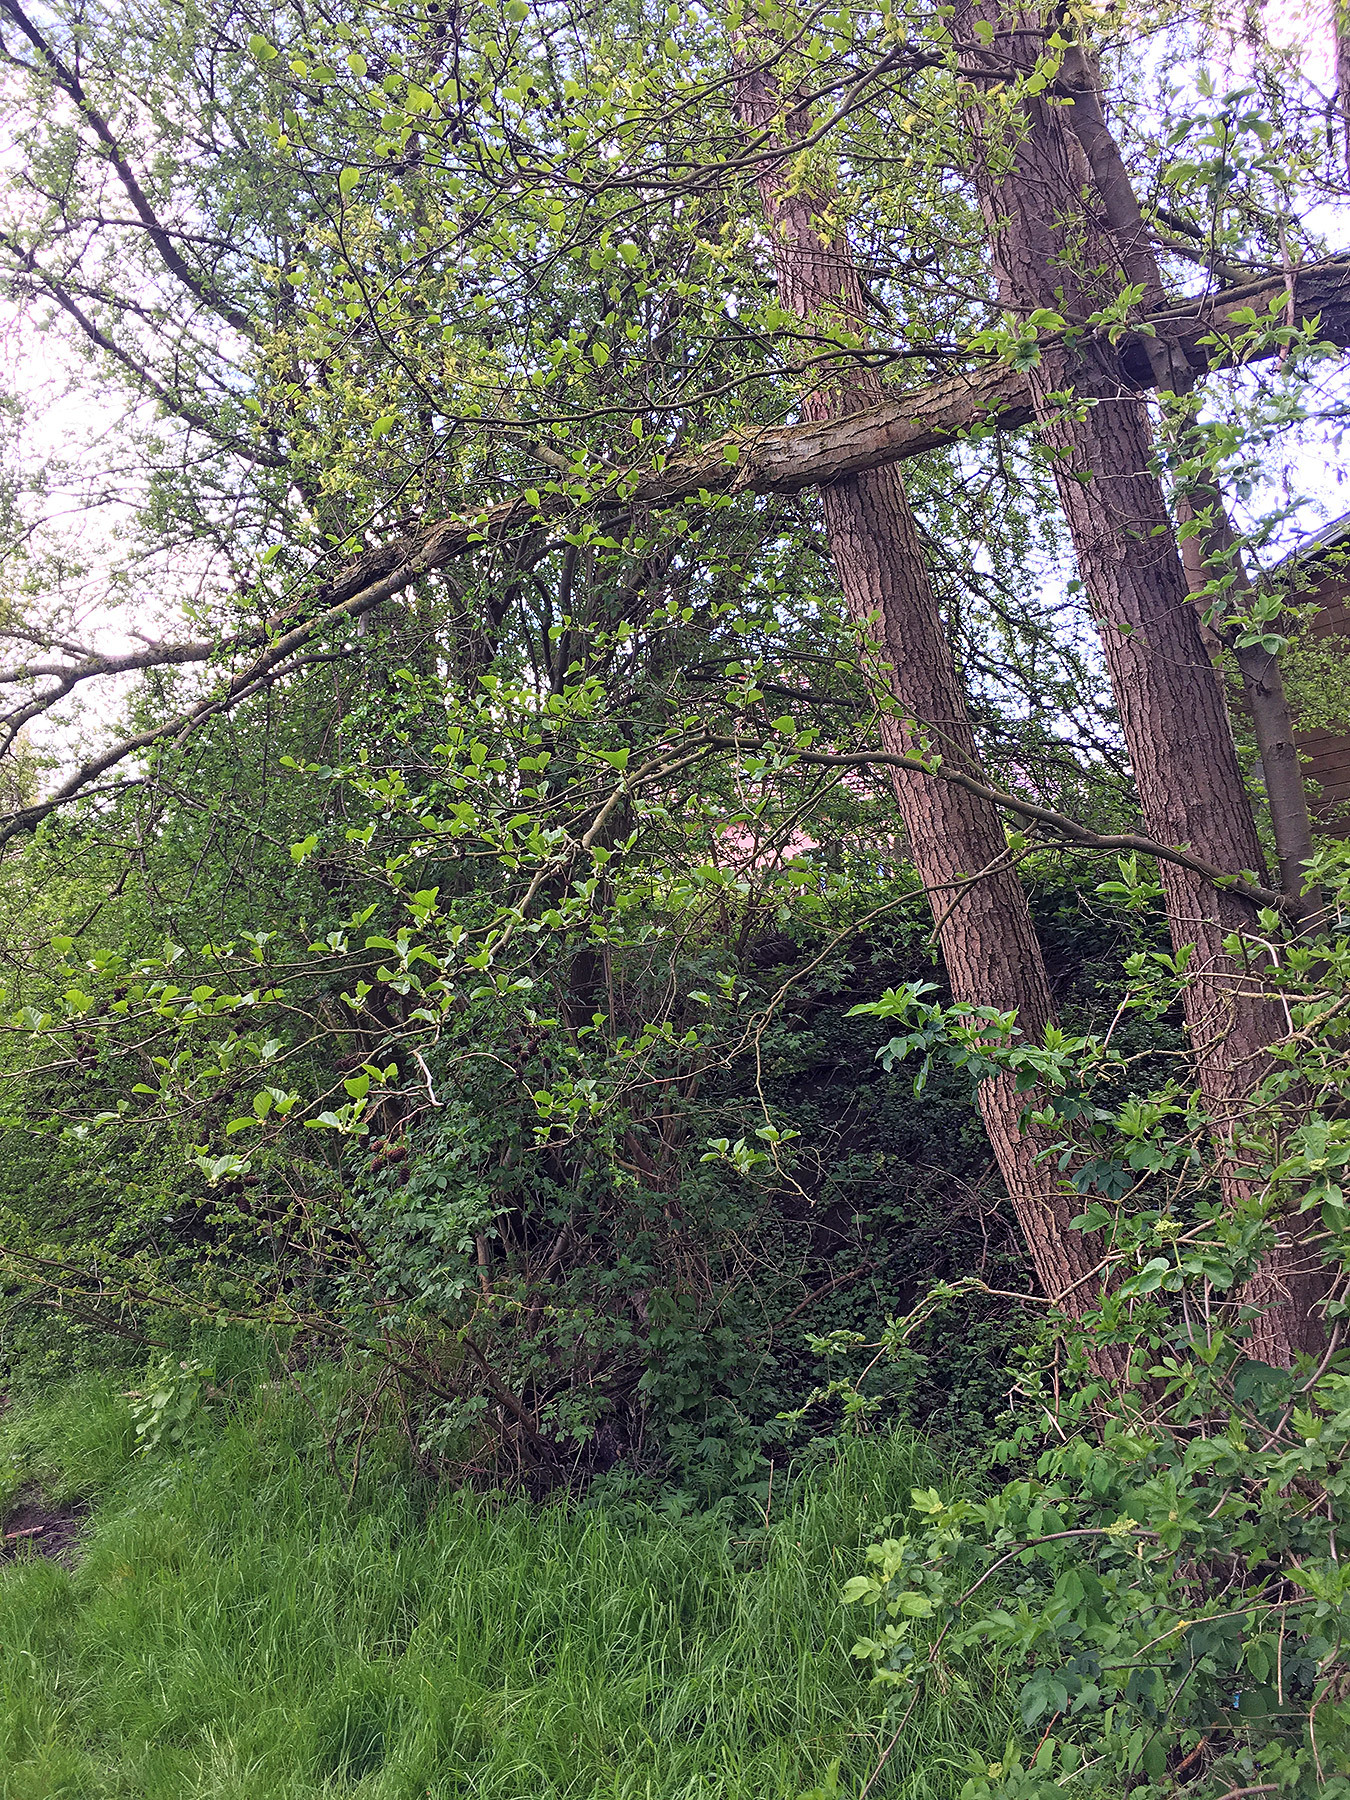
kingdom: Plantae
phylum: Tracheophyta
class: Magnoliopsida
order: Fagales
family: Betulaceae
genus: Alnus
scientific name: Alnus glutinosa
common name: Black alder
